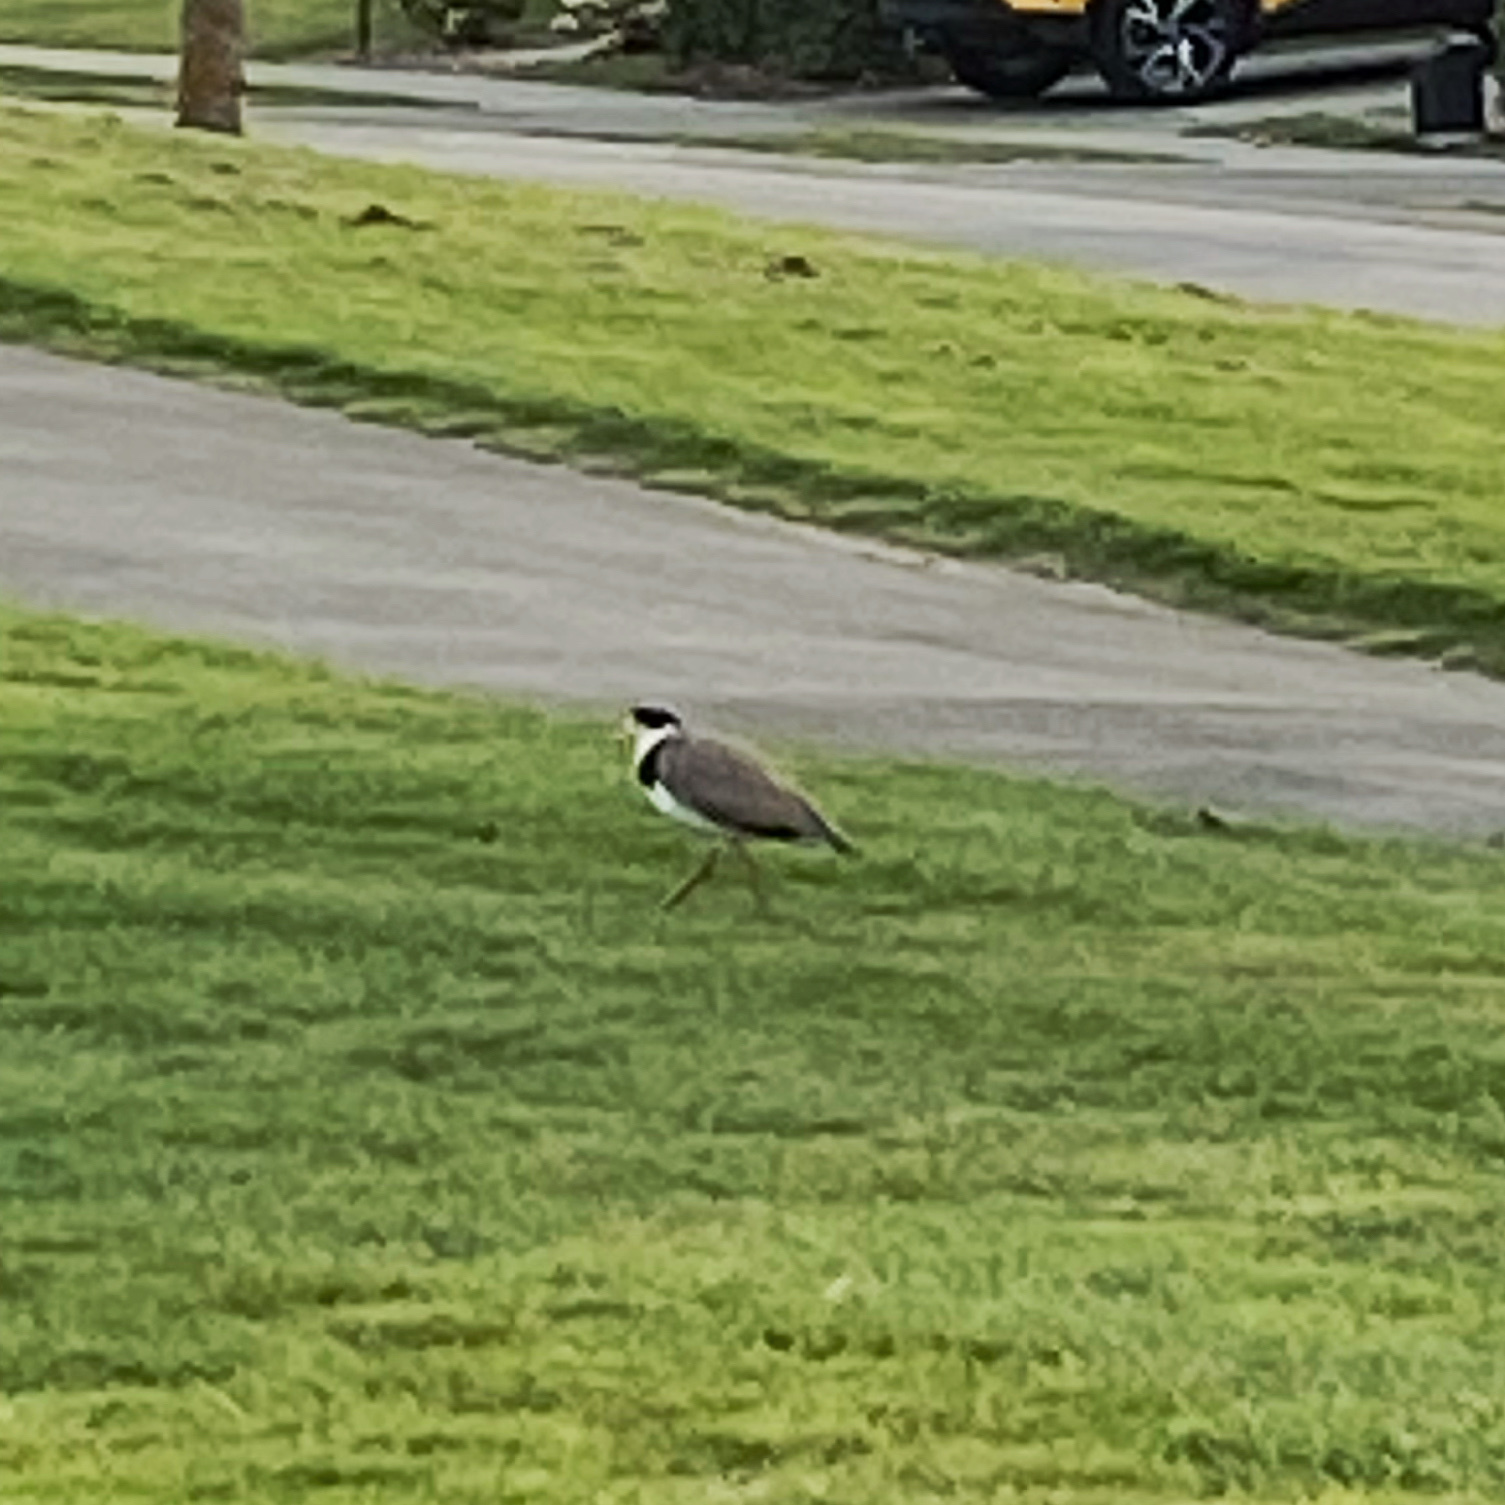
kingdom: Animalia
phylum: Chordata
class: Aves
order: Charadriiformes
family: Charadriidae
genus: Vanellus
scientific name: Vanellus miles
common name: Masked lapwing
